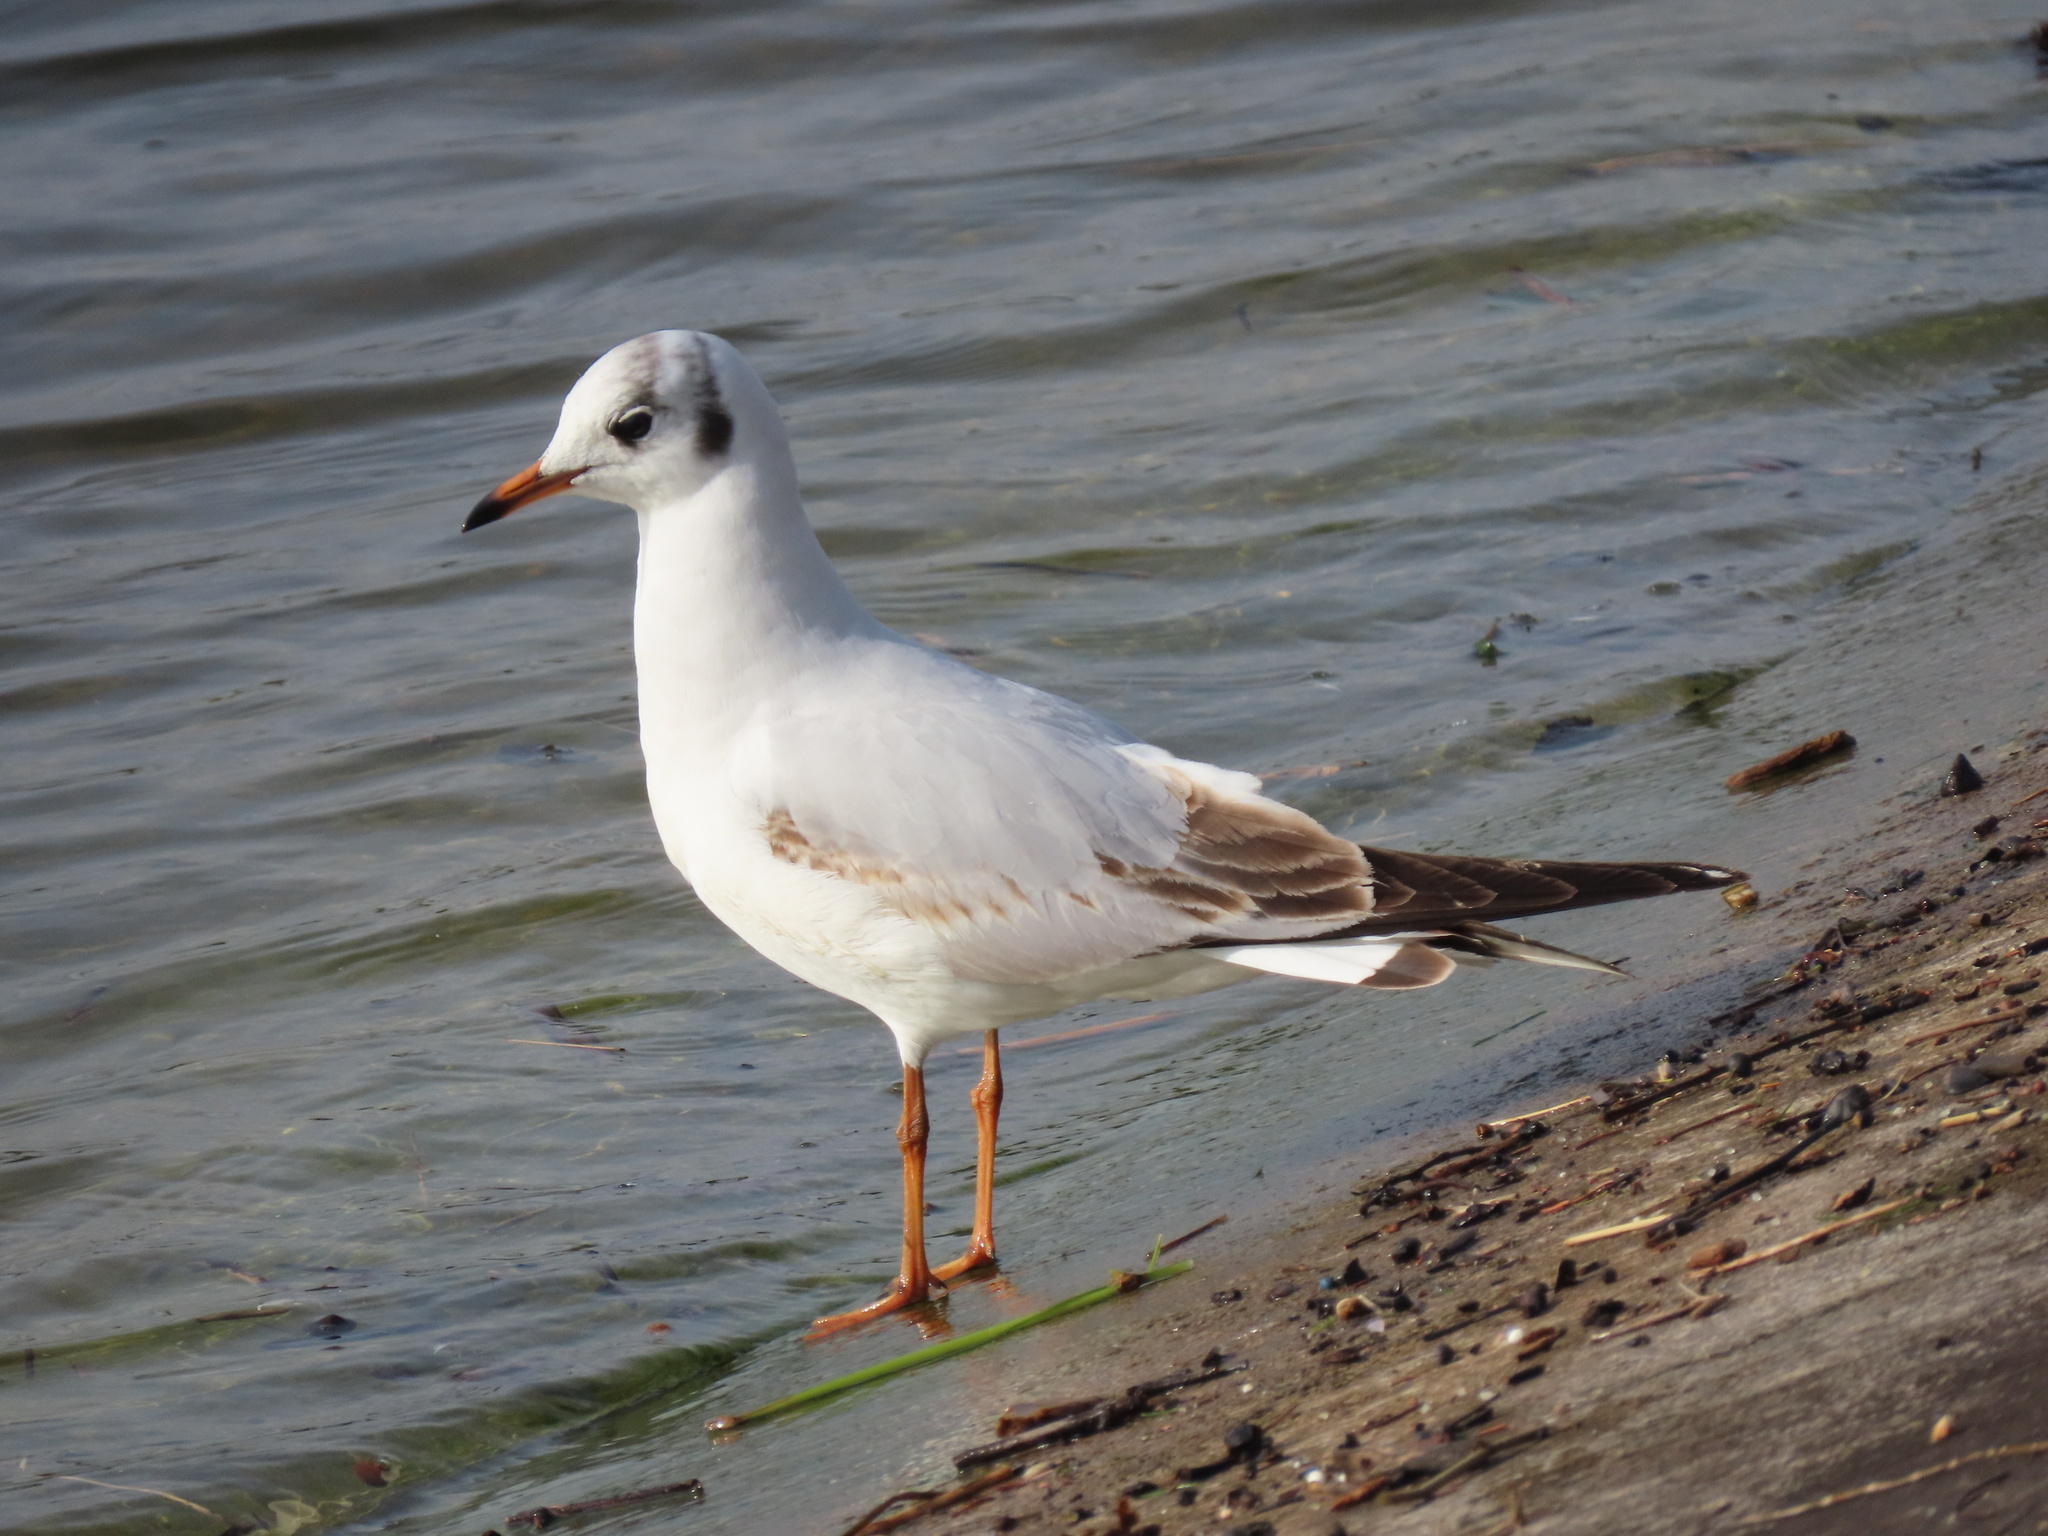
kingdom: Animalia
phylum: Chordata
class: Aves
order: Charadriiformes
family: Laridae
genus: Chroicocephalus
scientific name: Chroicocephalus ridibundus
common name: Black-headed gull
